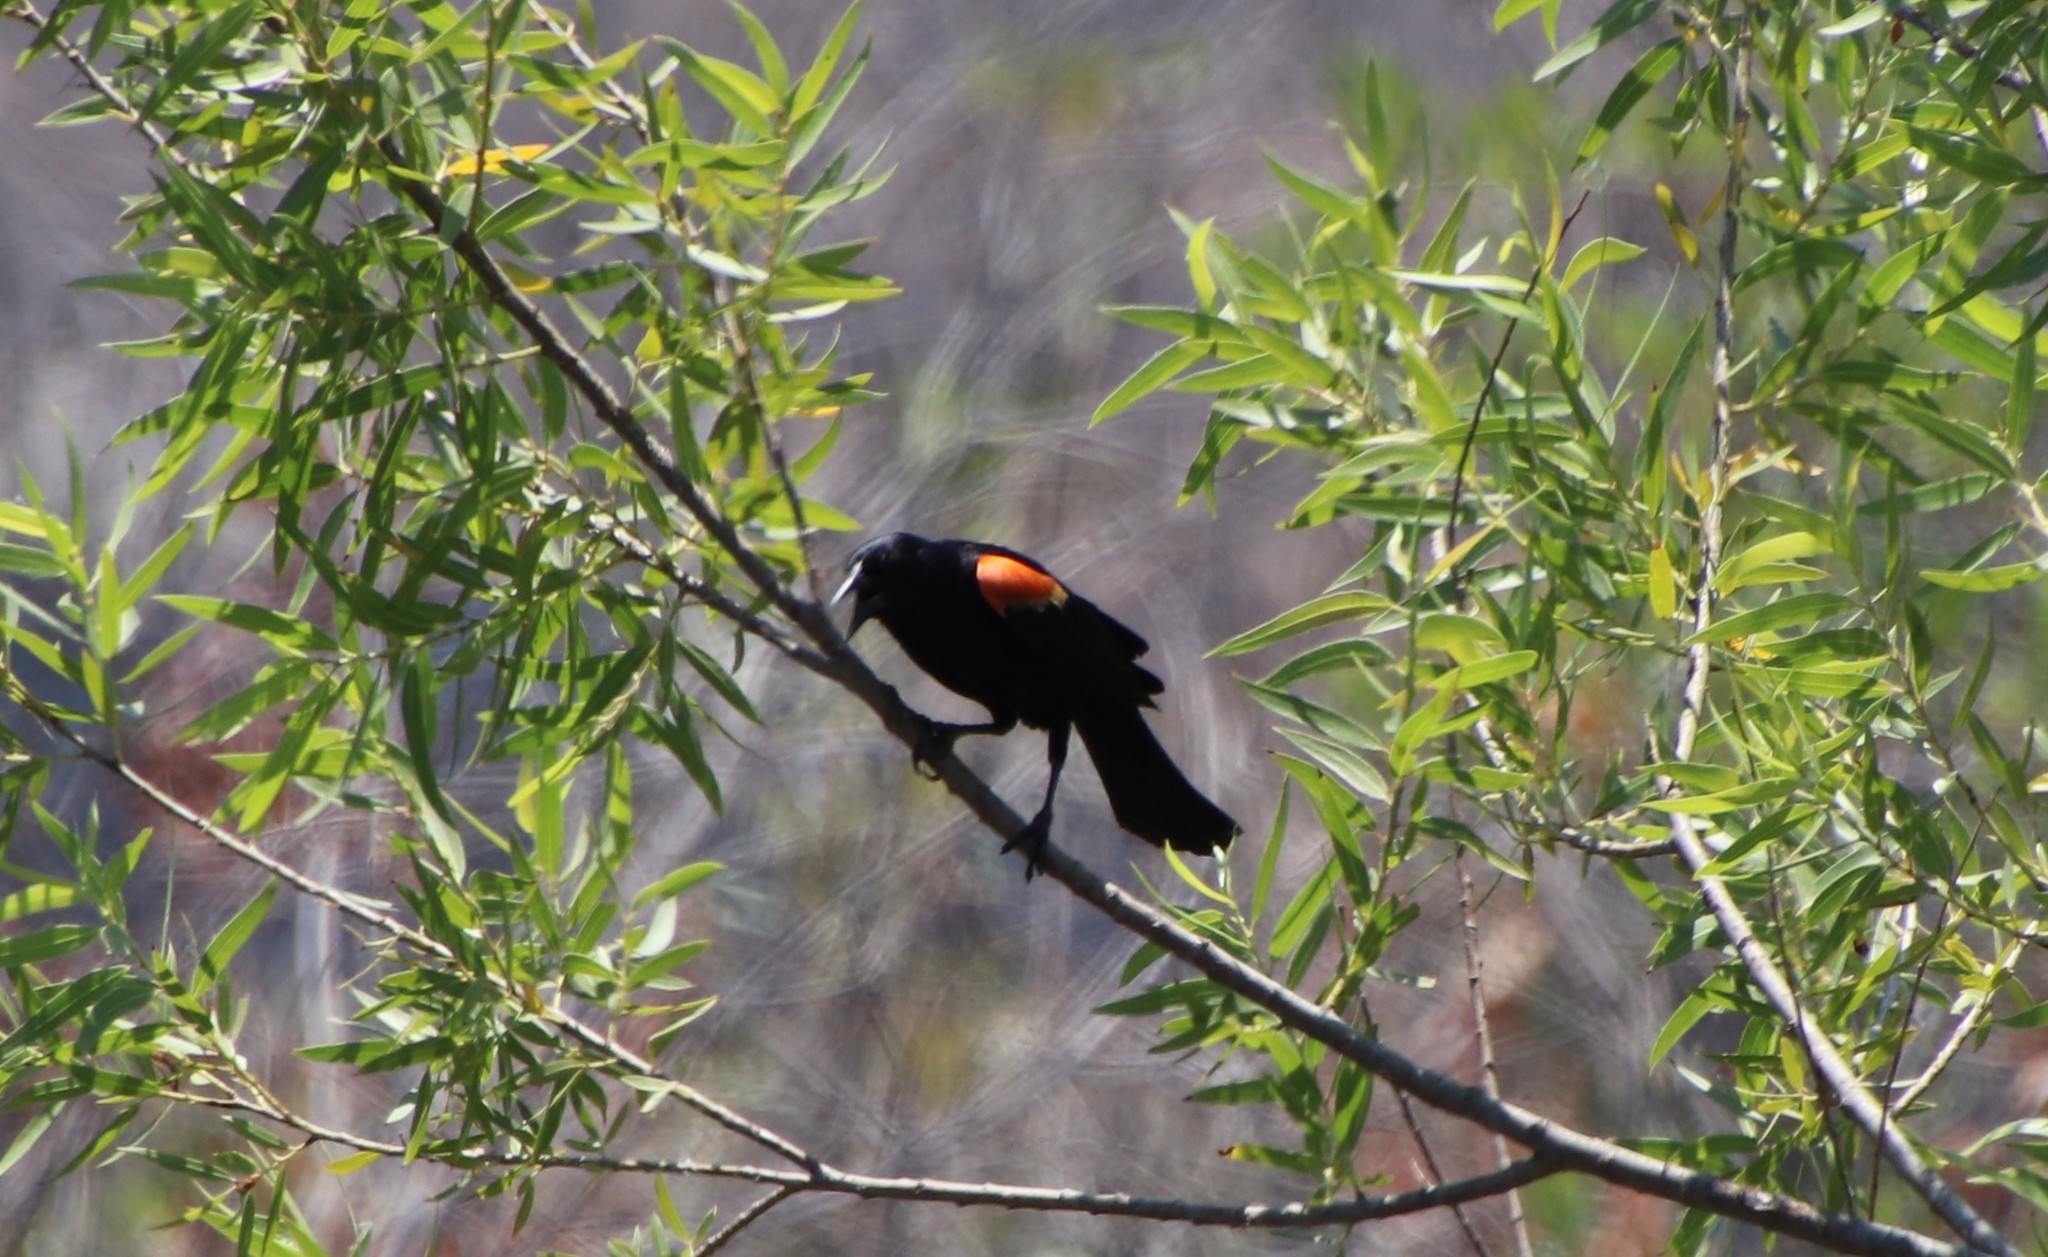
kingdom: Animalia
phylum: Chordata
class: Aves
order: Passeriformes
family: Icteridae
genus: Agelaius
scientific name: Agelaius phoeniceus
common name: Red-winged blackbird
